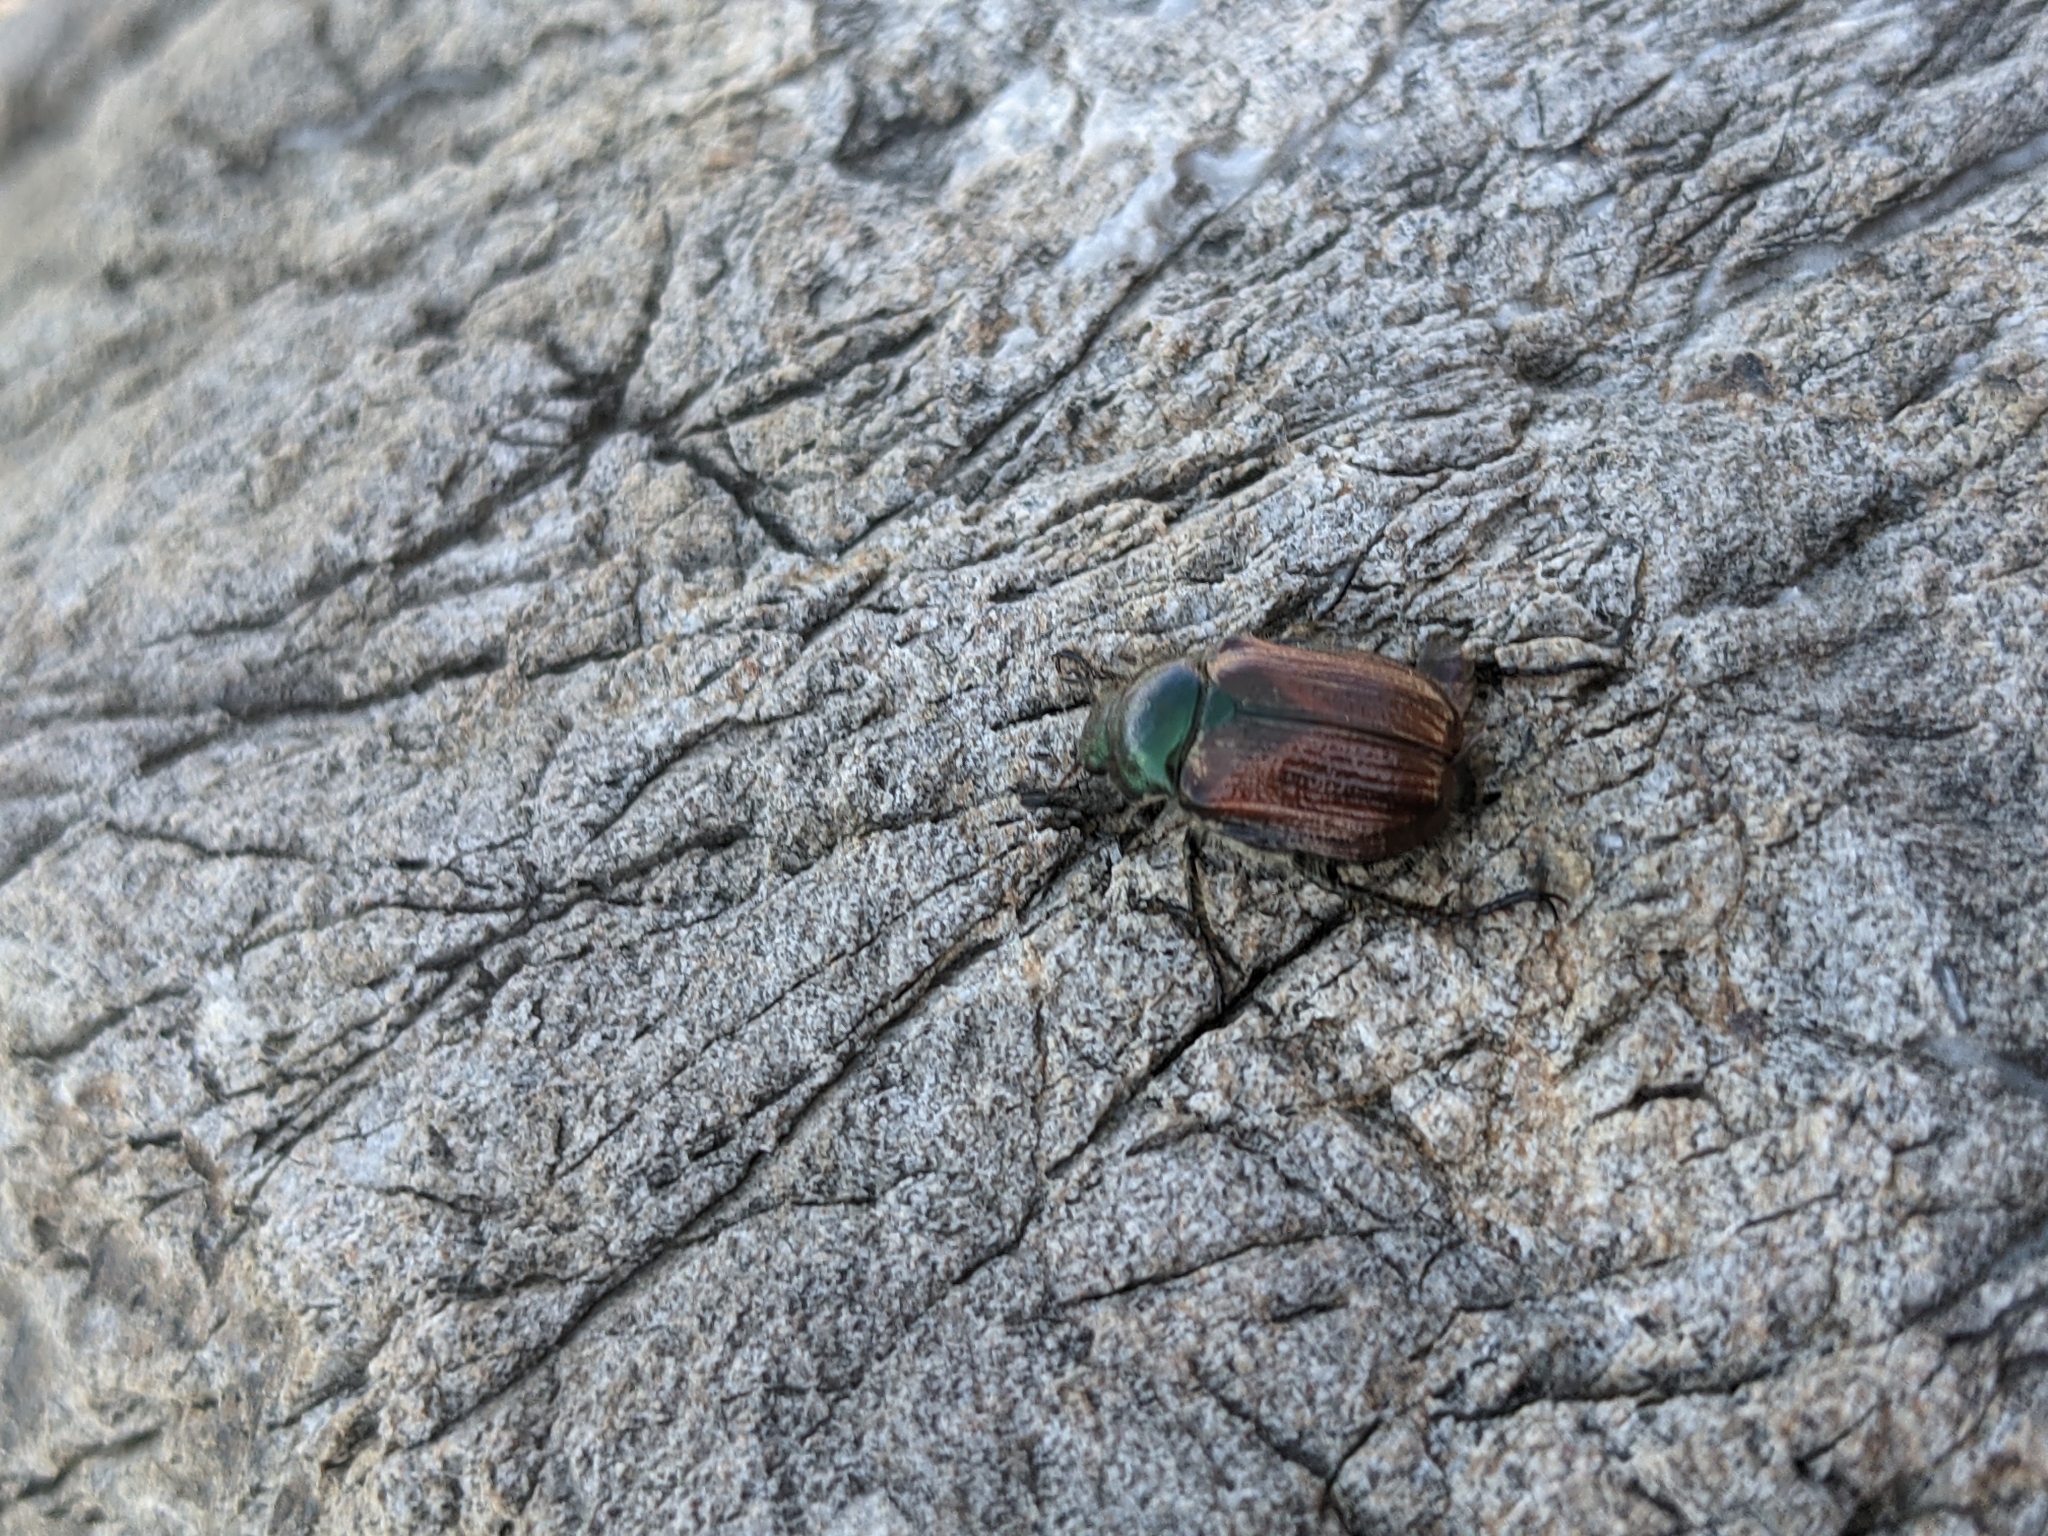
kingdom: Animalia
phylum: Arthropoda
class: Insecta
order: Coleoptera
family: Scarabaeidae
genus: Phyllopertha
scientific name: Phyllopertha horticola
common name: Garden chafer
